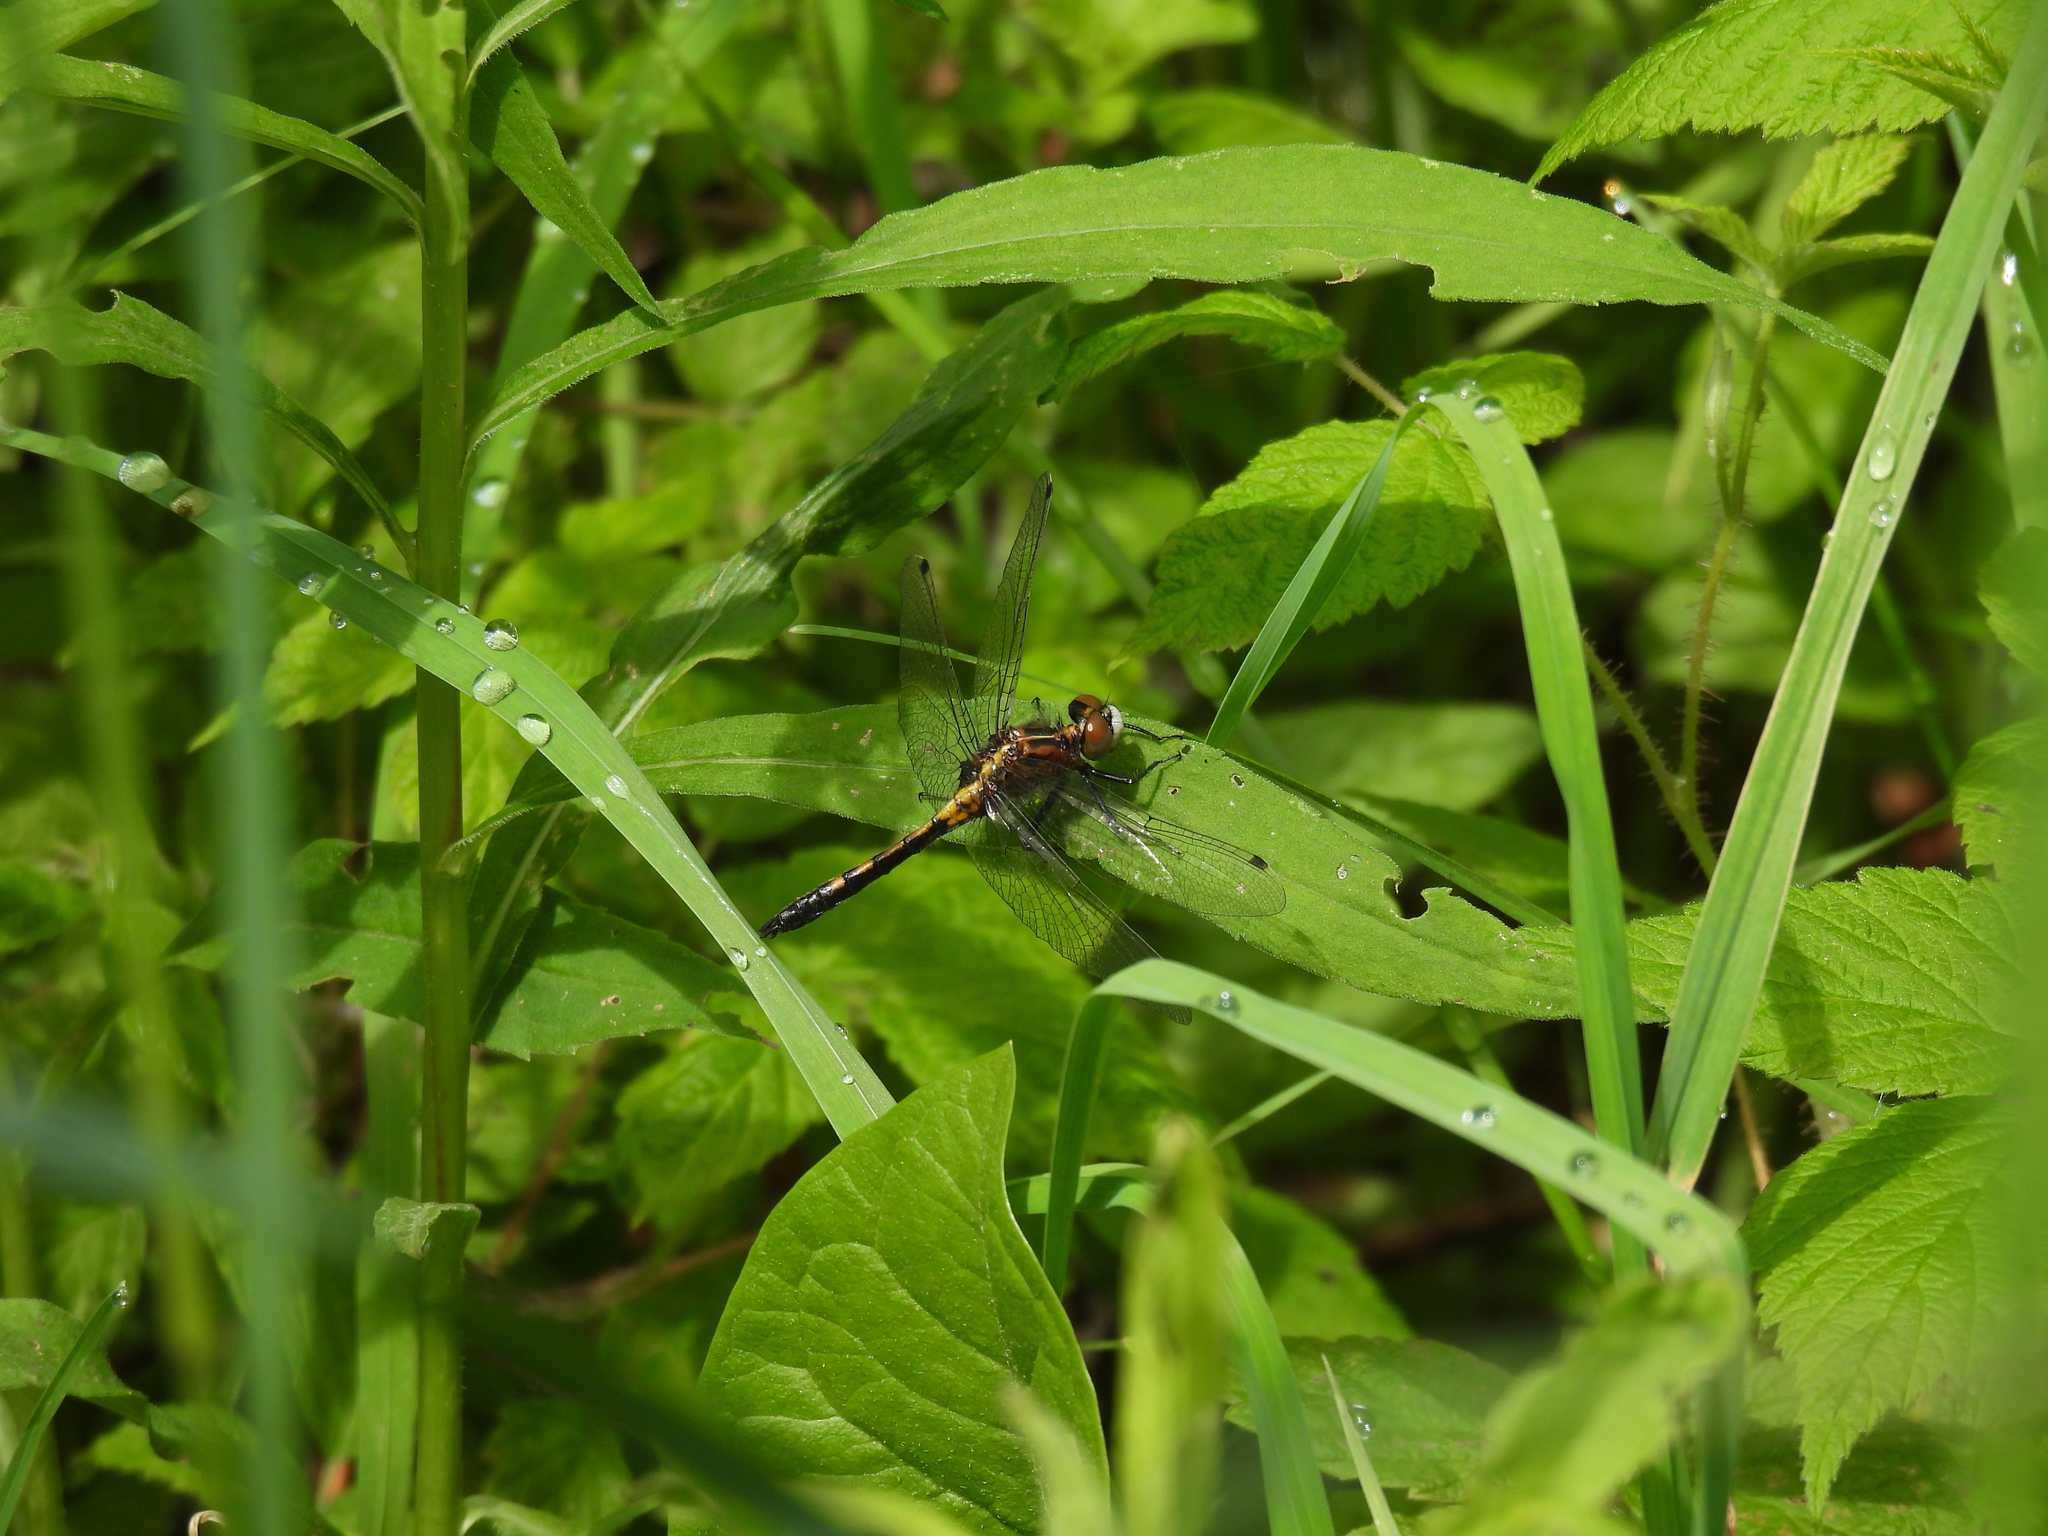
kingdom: Animalia
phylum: Arthropoda
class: Insecta
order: Odonata
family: Libellulidae
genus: Leucorrhinia
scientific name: Leucorrhinia intacta
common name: Dot-tailed whiteface
